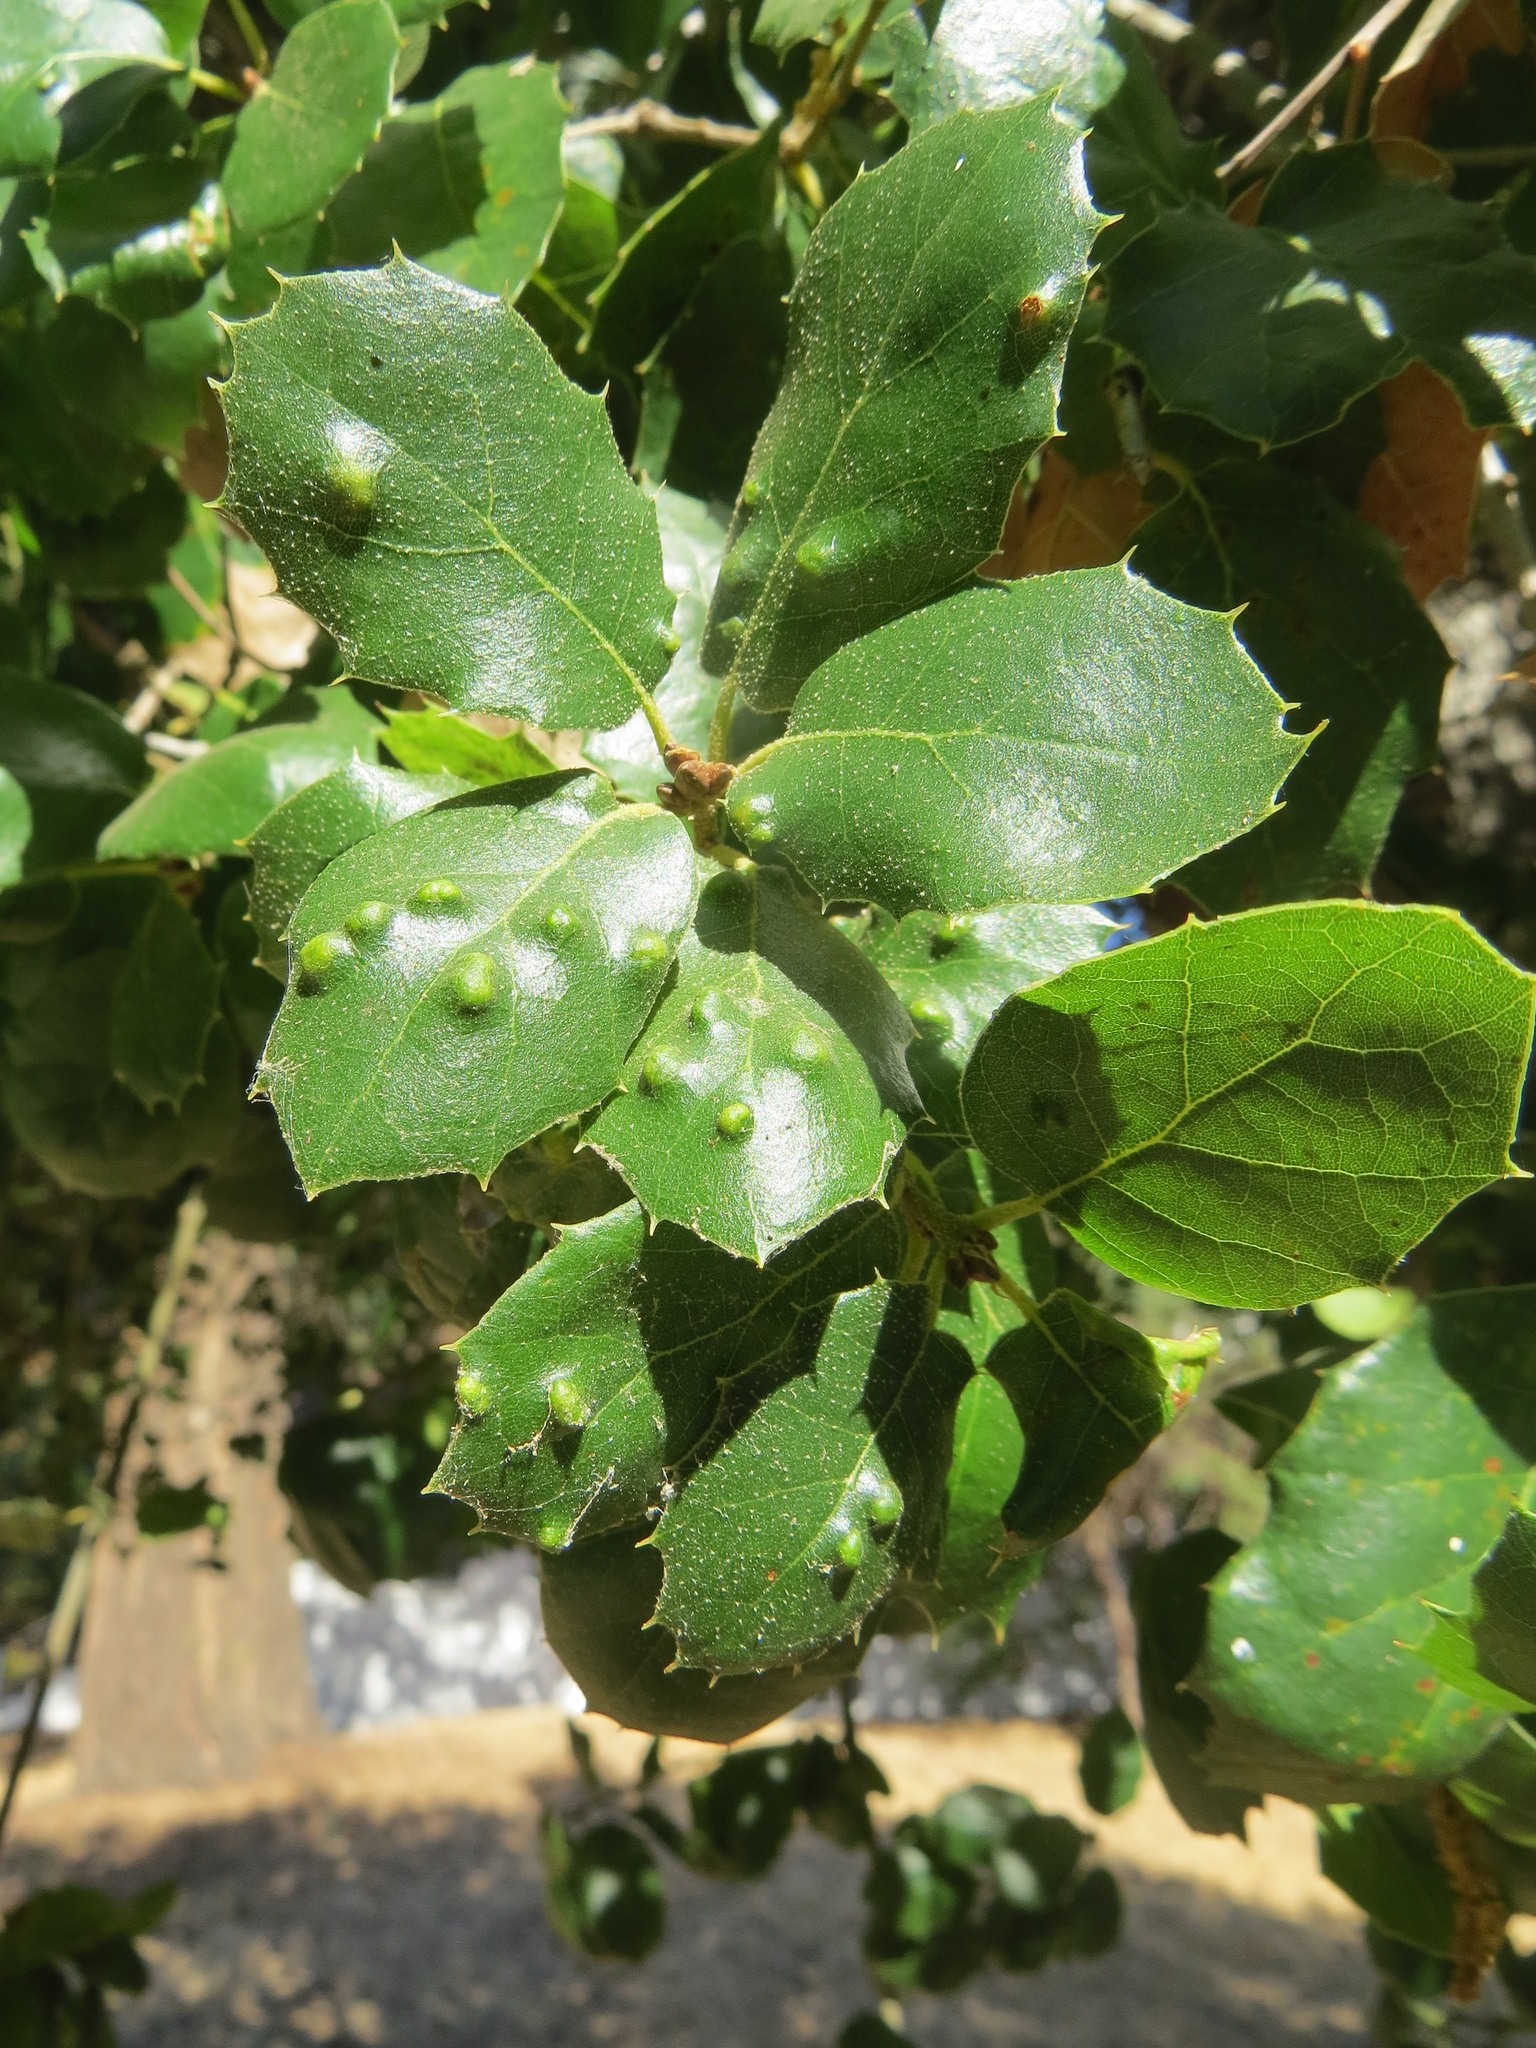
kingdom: Animalia
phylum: Arthropoda
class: Arachnida
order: Trombidiformes
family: Eriophyidae
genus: Aceria
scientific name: Aceria
